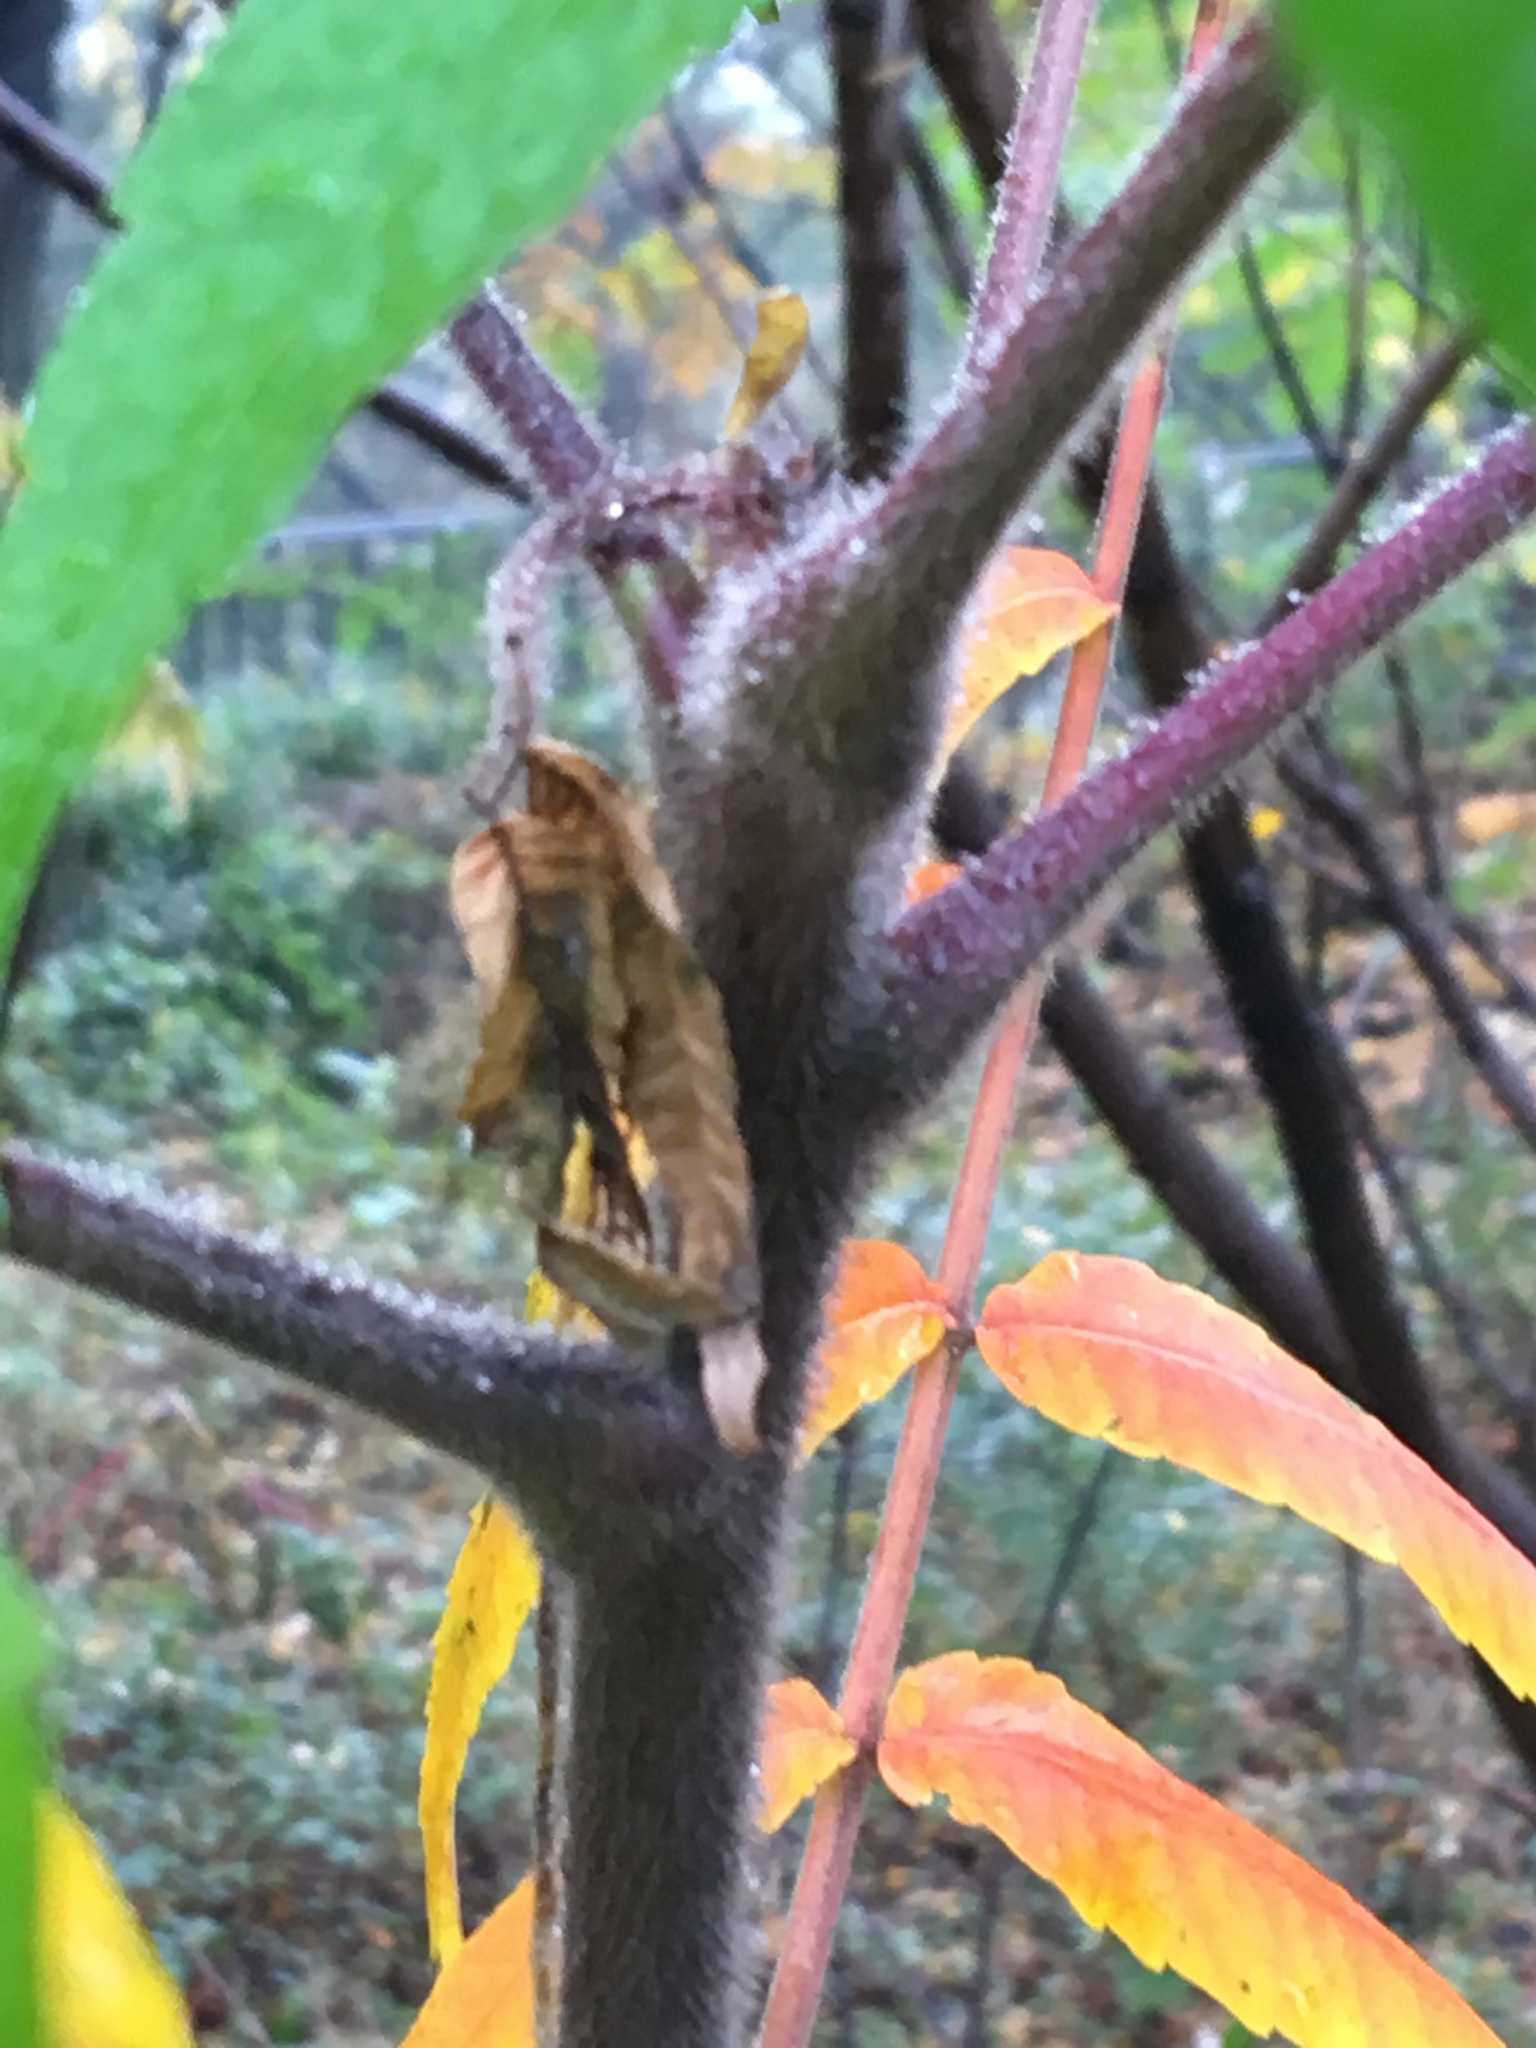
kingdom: Plantae
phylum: Tracheophyta
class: Magnoliopsida
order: Sapindales
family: Anacardiaceae
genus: Rhus
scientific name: Rhus typhina
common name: Staghorn sumac
